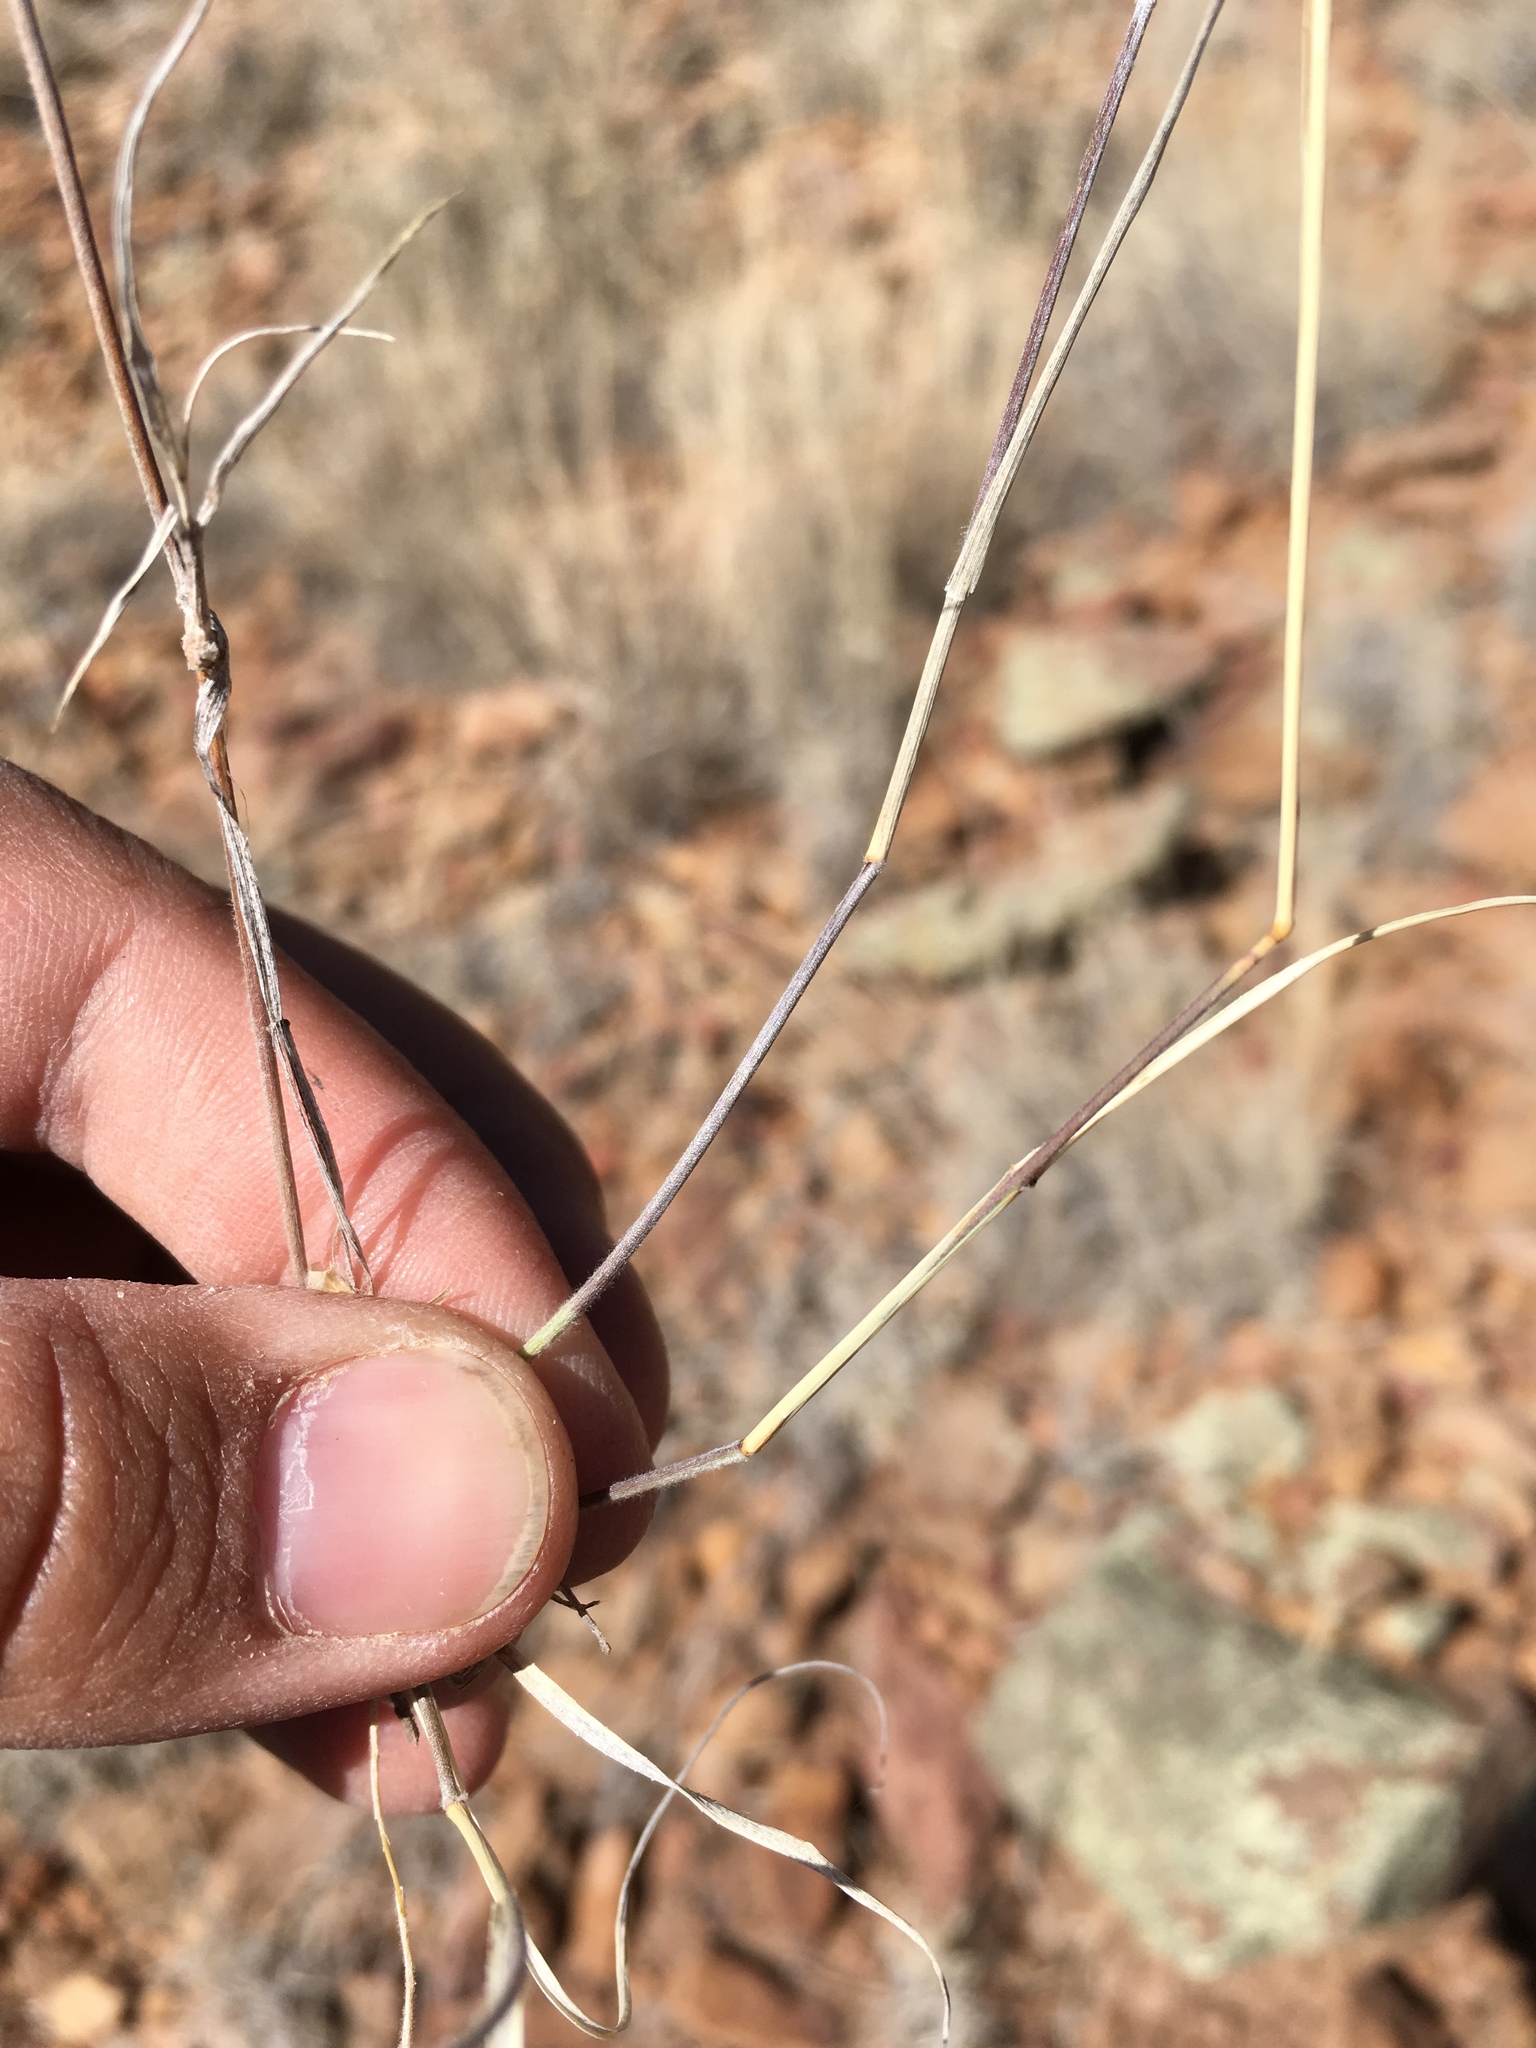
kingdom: Plantae
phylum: Tracheophyta
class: Liliopsida
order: Poales
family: Poaceae
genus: Bouteloua
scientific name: Bouteloua eriopoda
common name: Woolly foot grama
